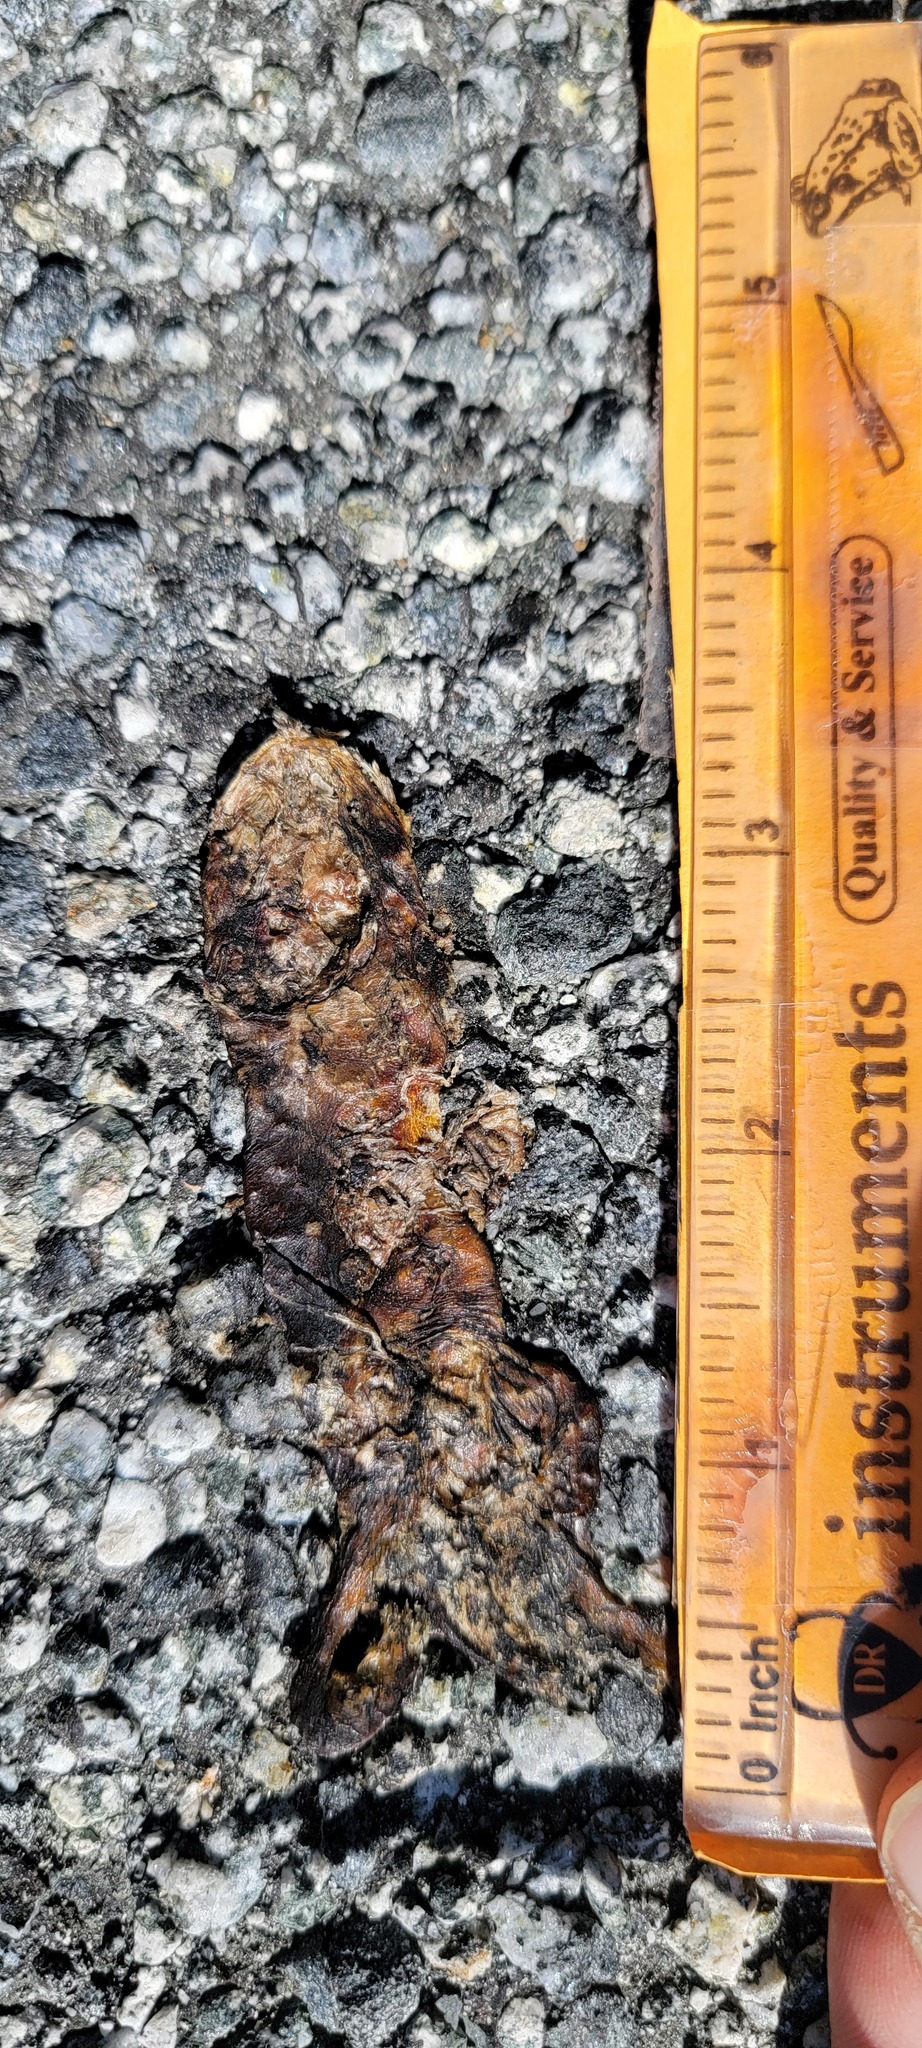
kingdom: Animalia
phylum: Chordata
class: Amphibia
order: Caudata
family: Salamandridae
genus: Taricha
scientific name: Taricha
